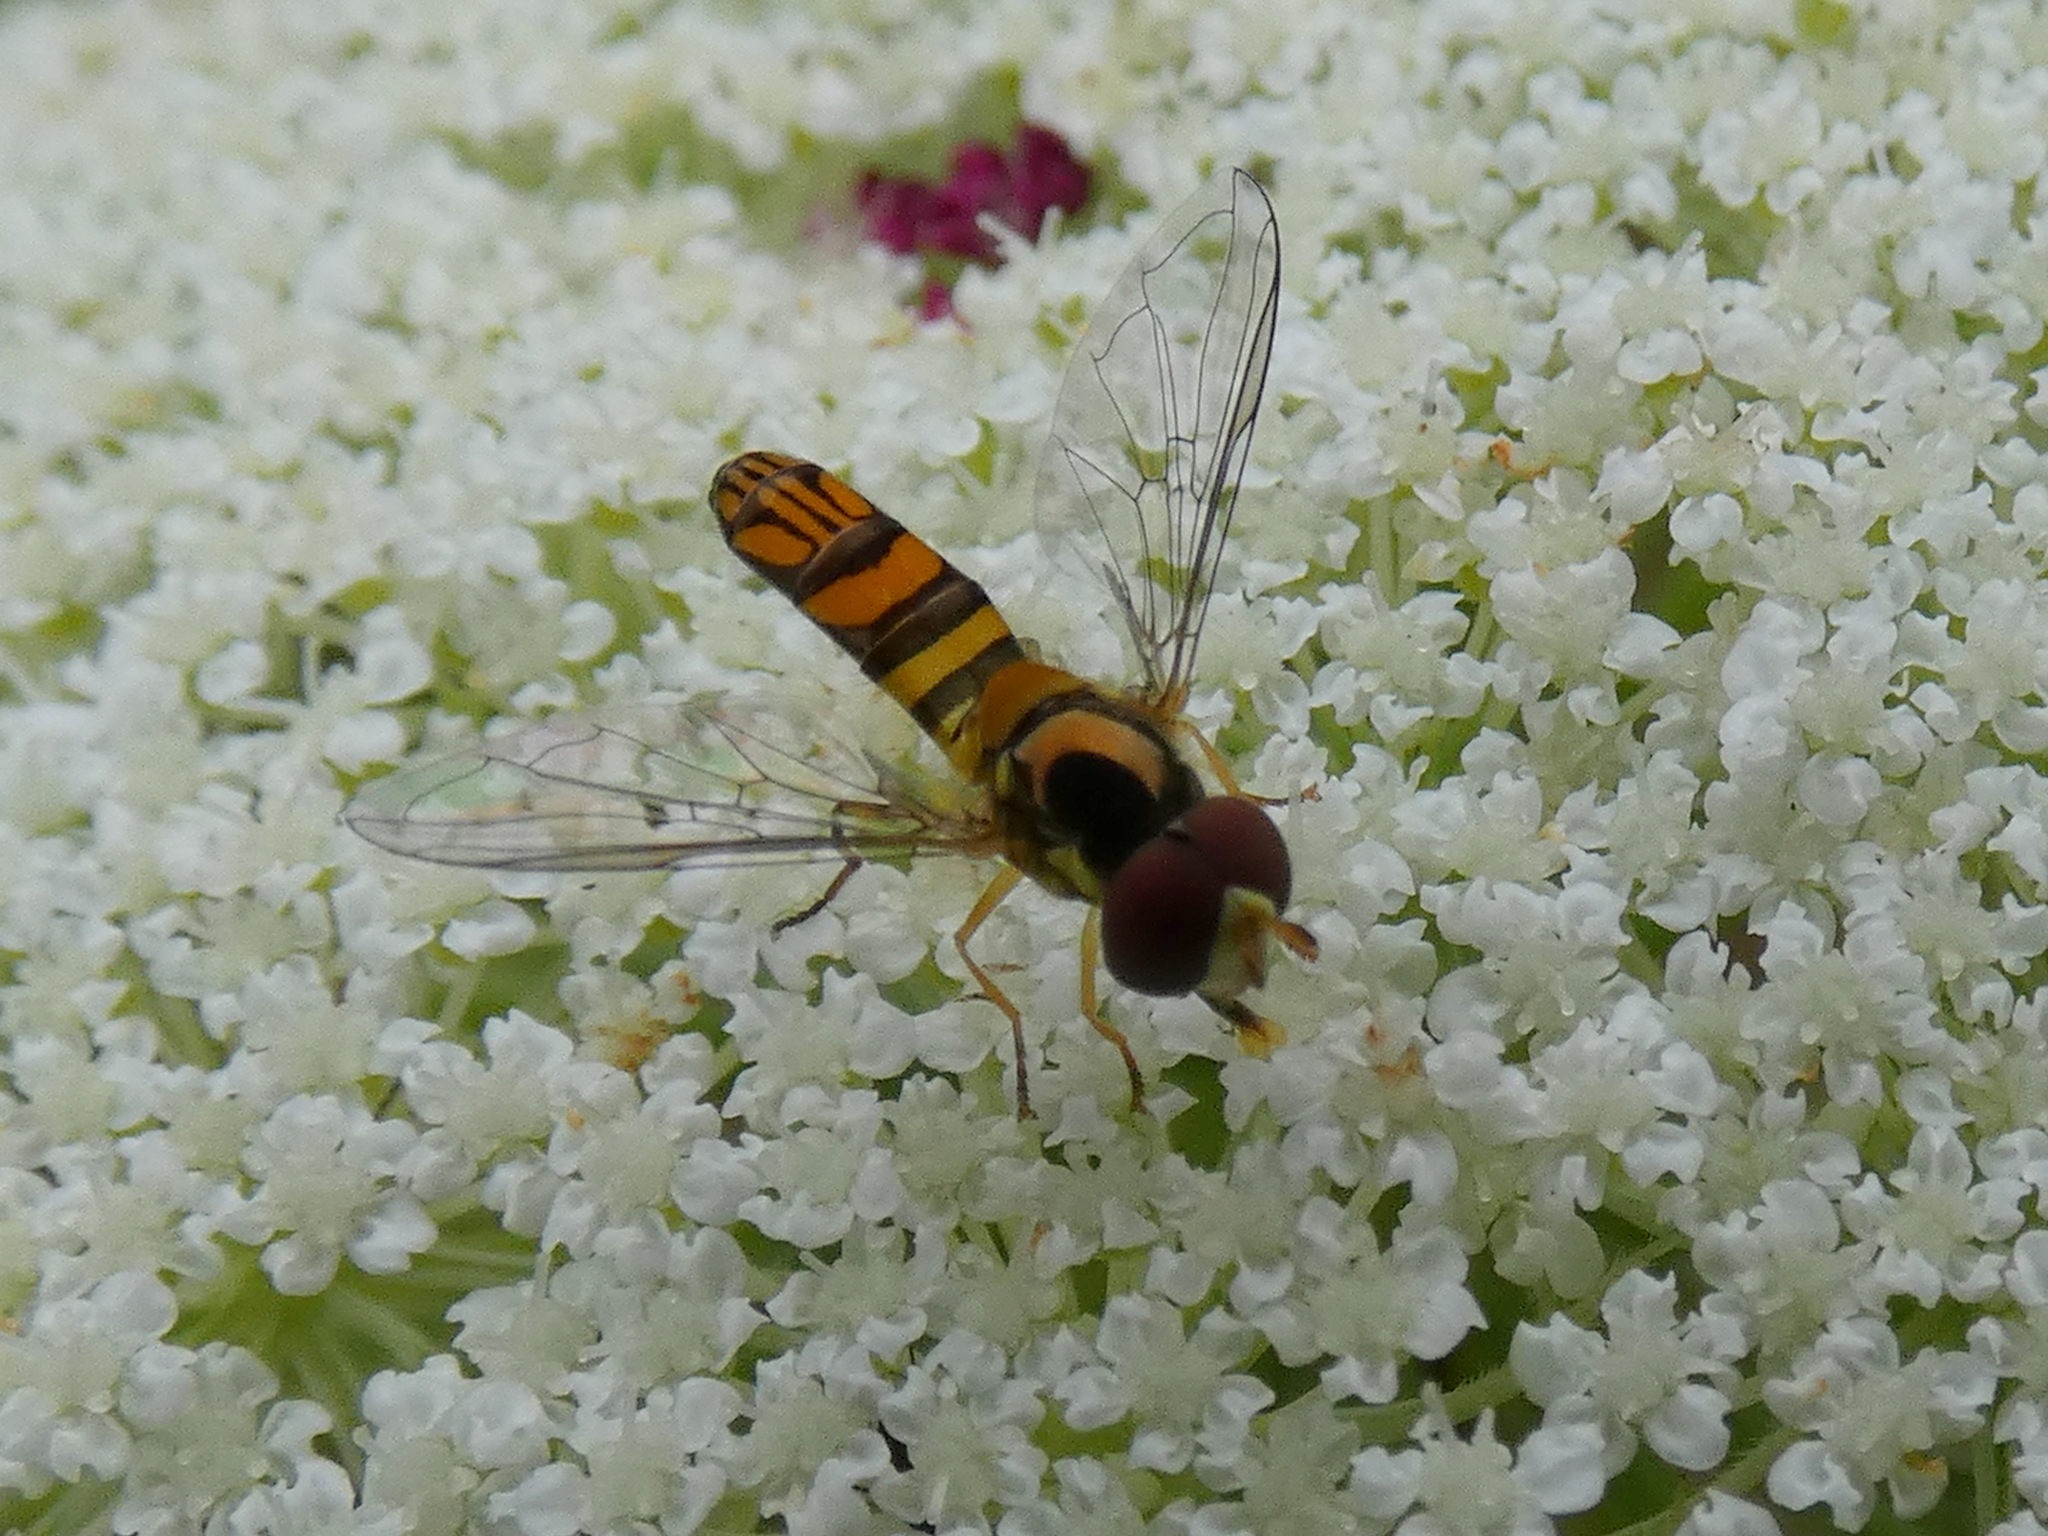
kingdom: Animalia
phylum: Arthropoda
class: Insecta
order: Diptera
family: Syrphidae
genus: Allograpta
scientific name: Allograpta obliqua
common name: Common oblique syrphid
